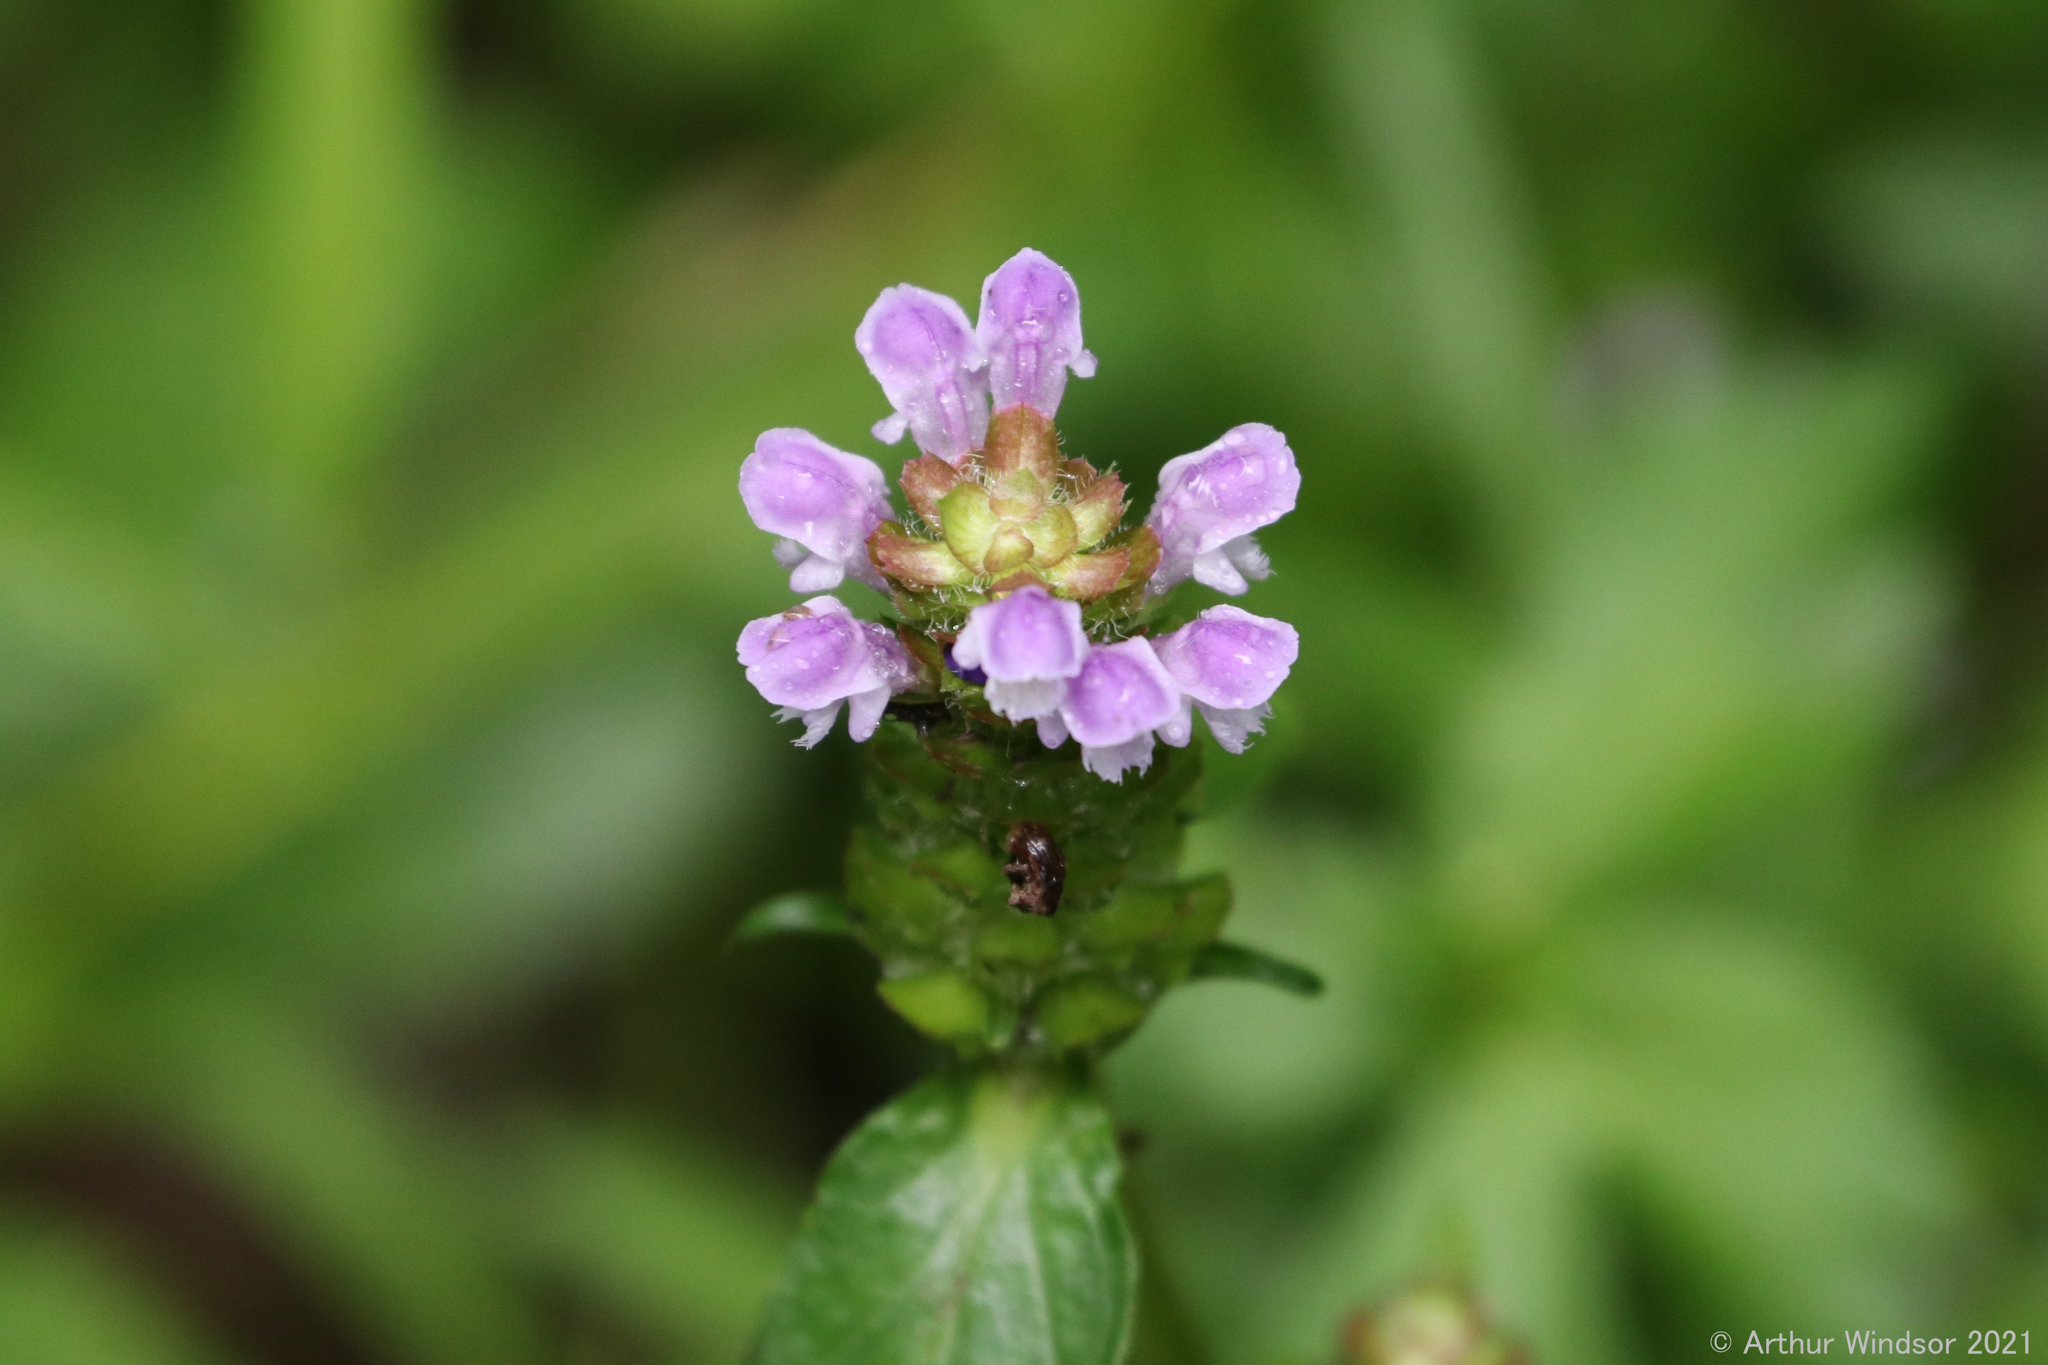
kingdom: Plantae
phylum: Tracheophyta
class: Magnoliopsida
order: Lamiales
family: Lamiaceae
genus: Prunella
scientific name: Prunella vulgaris
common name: Heal-all
